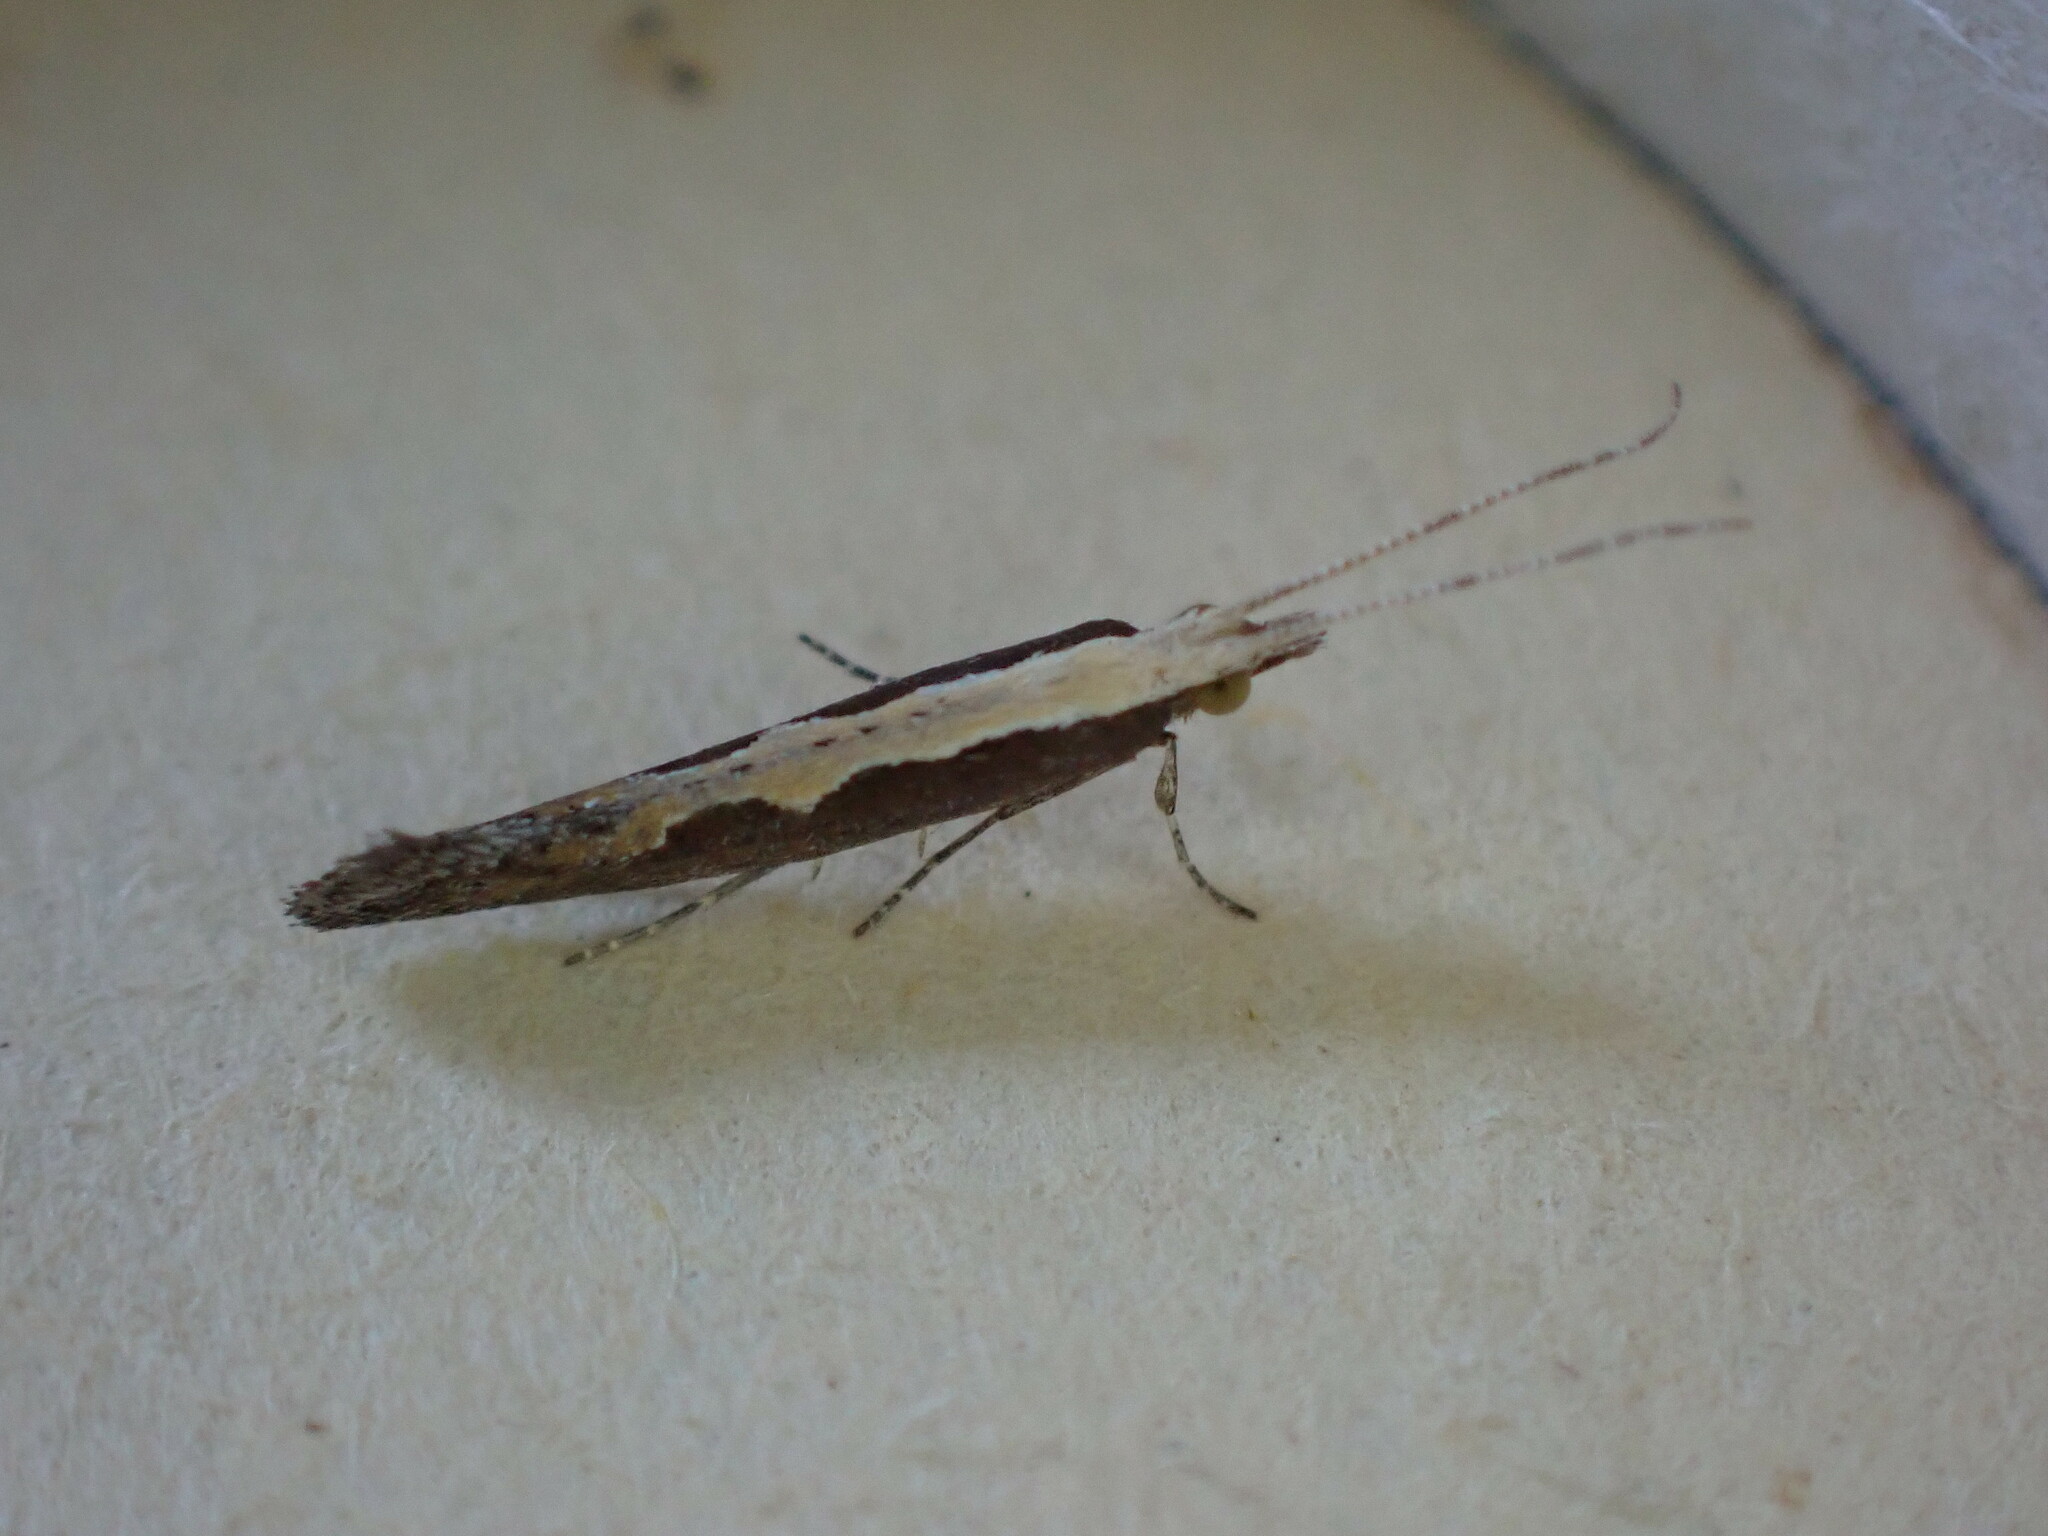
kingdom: Animalia
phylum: Arthropoda
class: Insecta
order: Lepidoptera
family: Plutellidae
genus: Plutella
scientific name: Plutella xylostella
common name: Diamond-back moth
